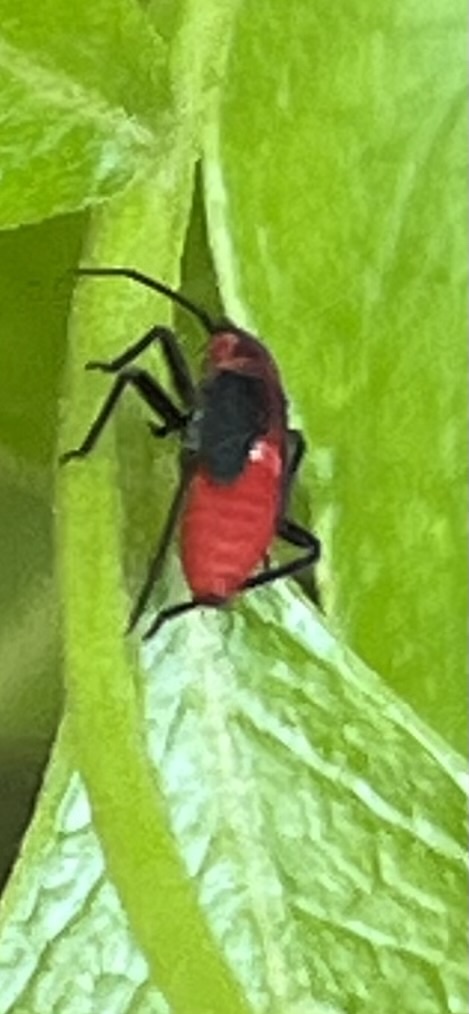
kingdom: Animalia
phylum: Arthropoda
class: Insecta
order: Hemiptera
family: Miridae
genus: Lopidea
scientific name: Lopidea major
